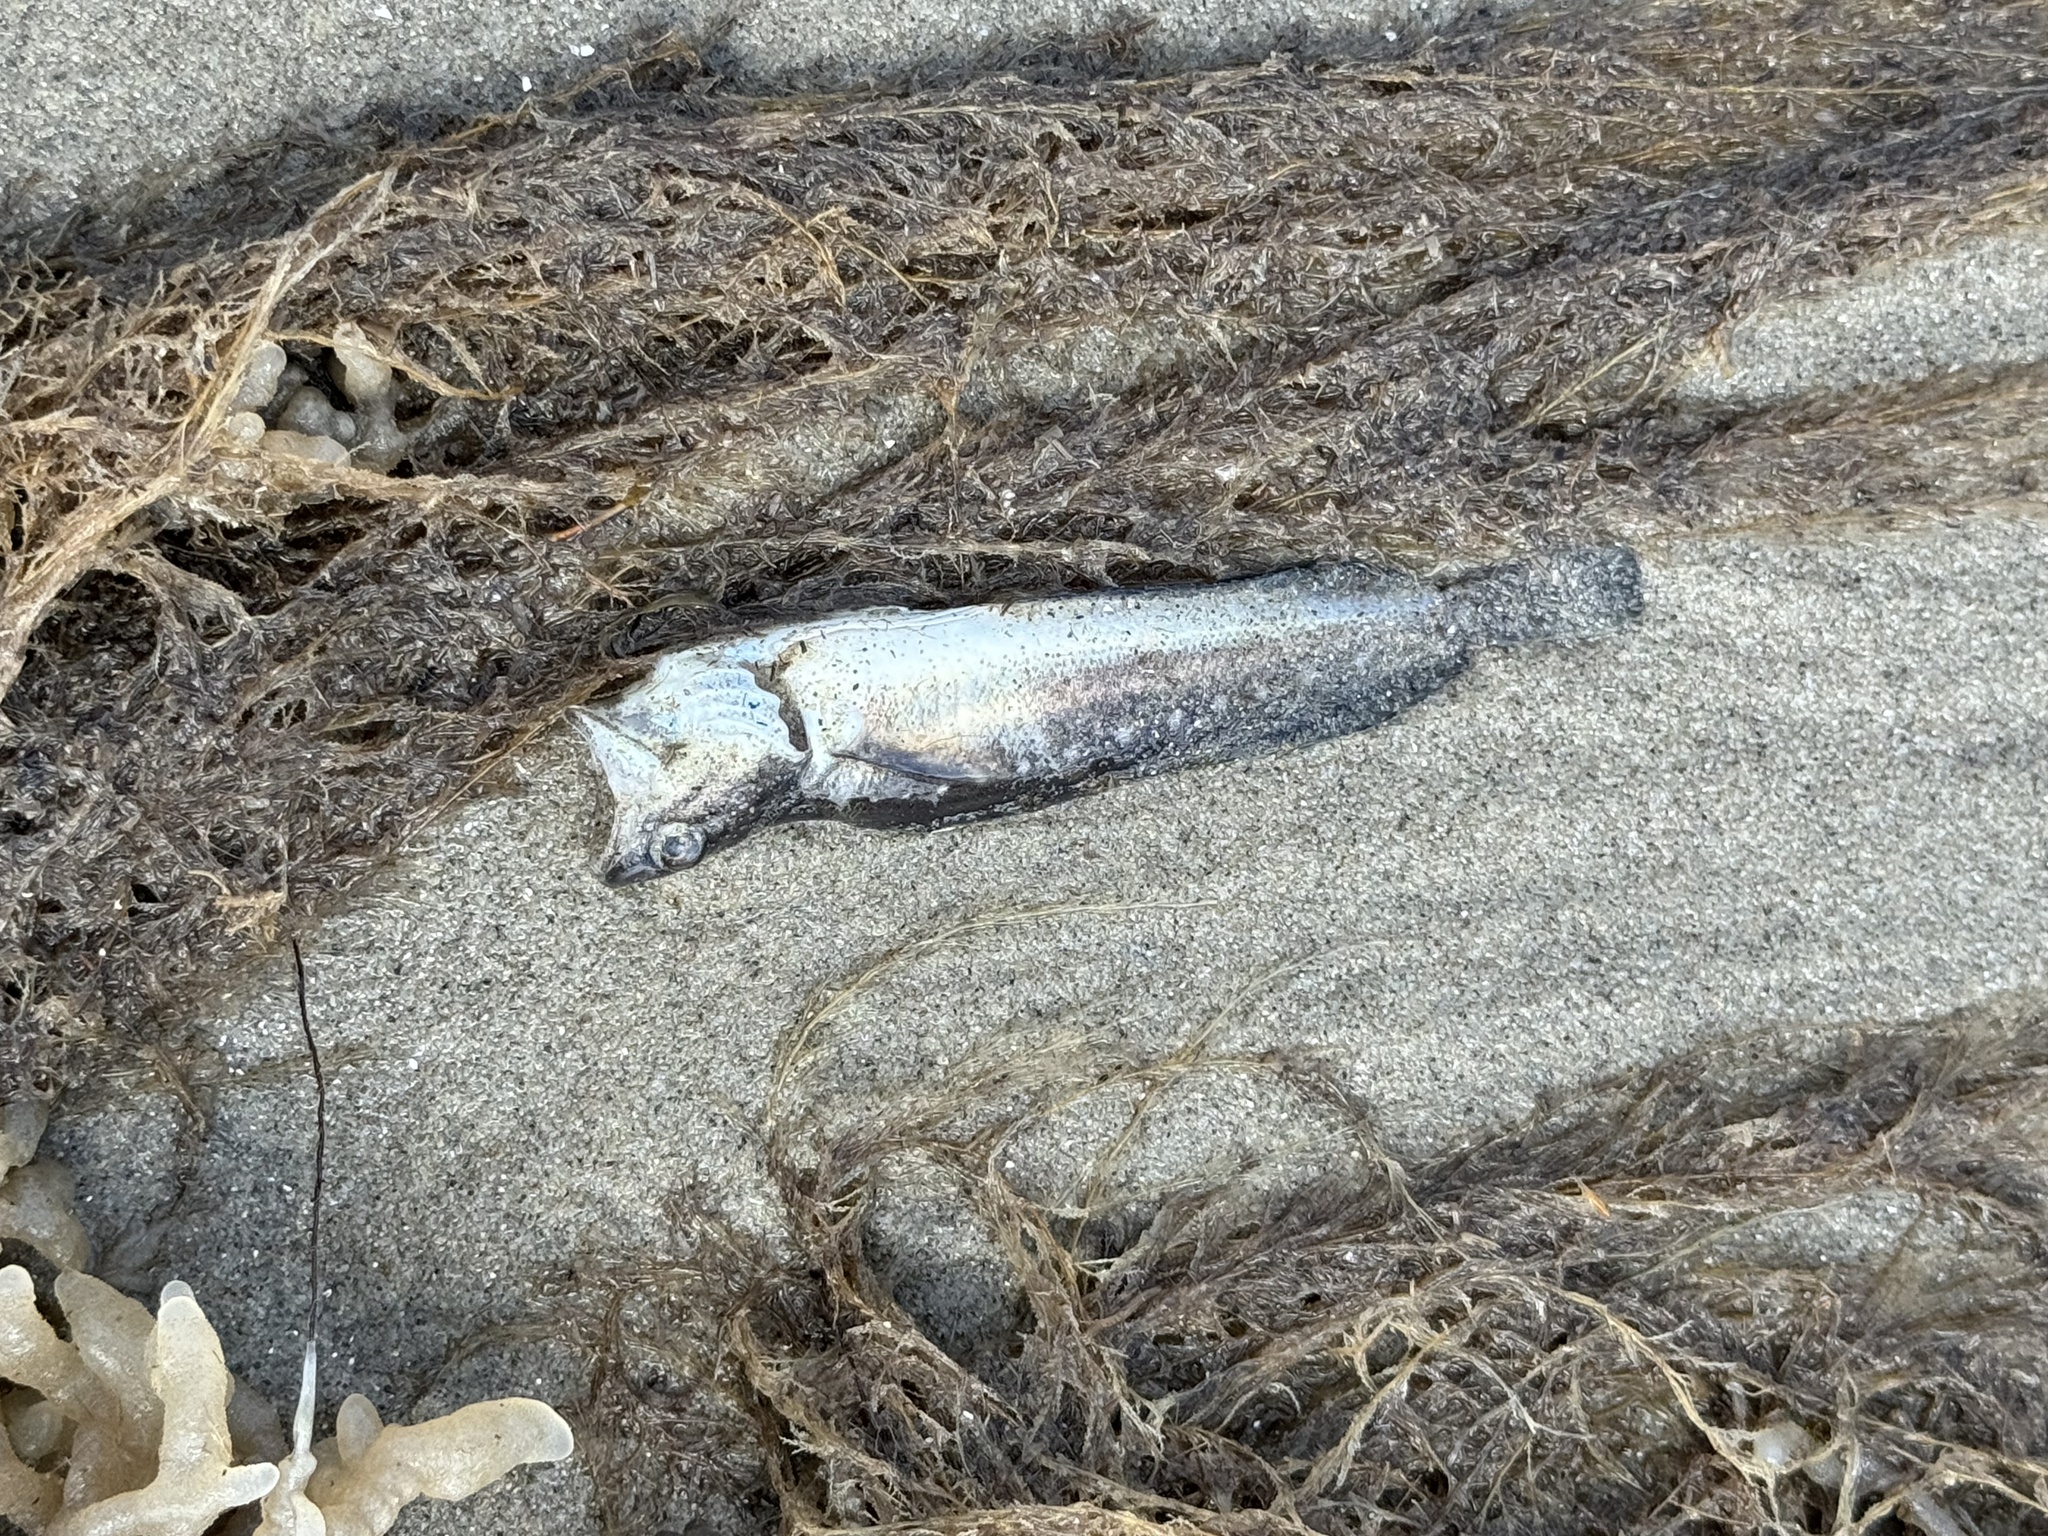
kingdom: Animalia
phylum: Chordata
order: Gadiformes
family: Phycidae
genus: Urophycis
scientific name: Urophycis regia
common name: Spotted codling
